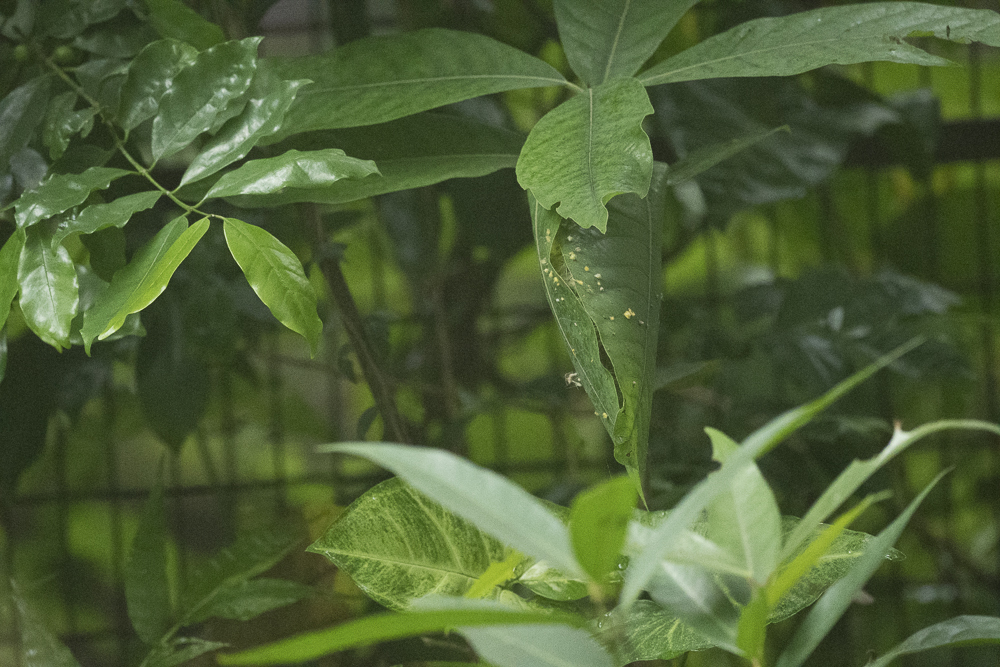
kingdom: Animalia
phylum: Chordata
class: Aves
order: Passeriformes
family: Cisticolidae
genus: Orthotomus
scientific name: Orthotomus sutorius
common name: Common tailorbird
